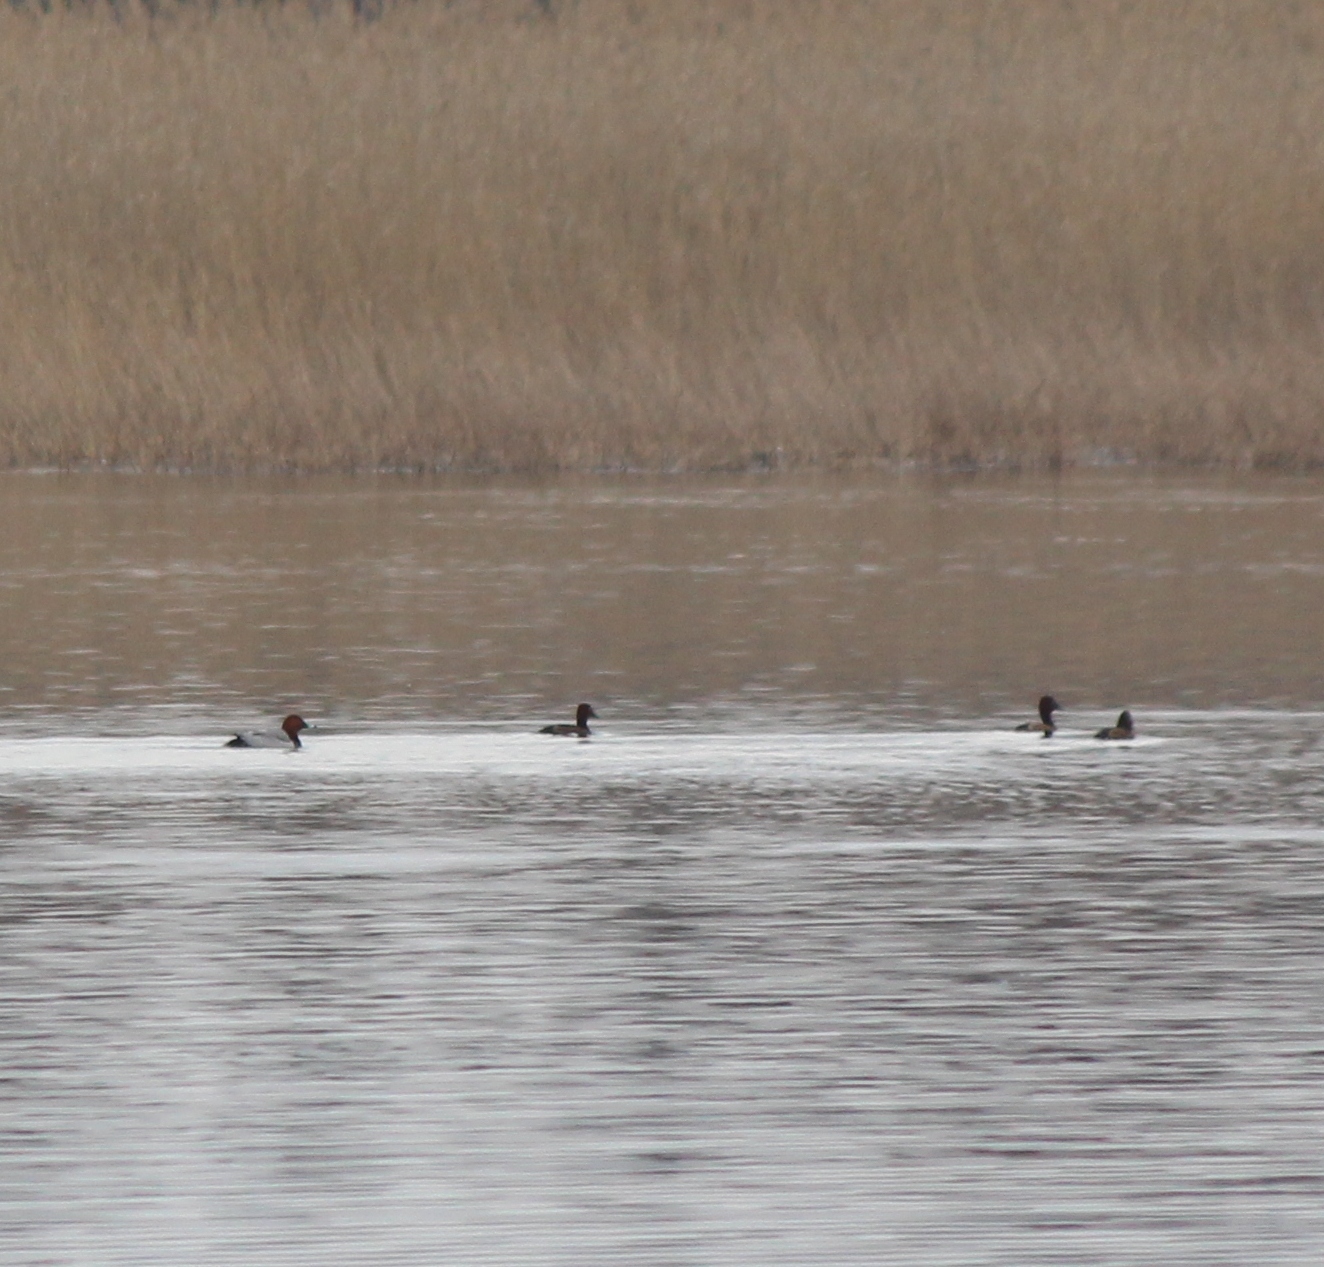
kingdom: Animalia
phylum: Chordata
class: Aves
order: Anseriformes
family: Anatidae
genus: Aythya
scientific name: Aythya ferina
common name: Common pochard
